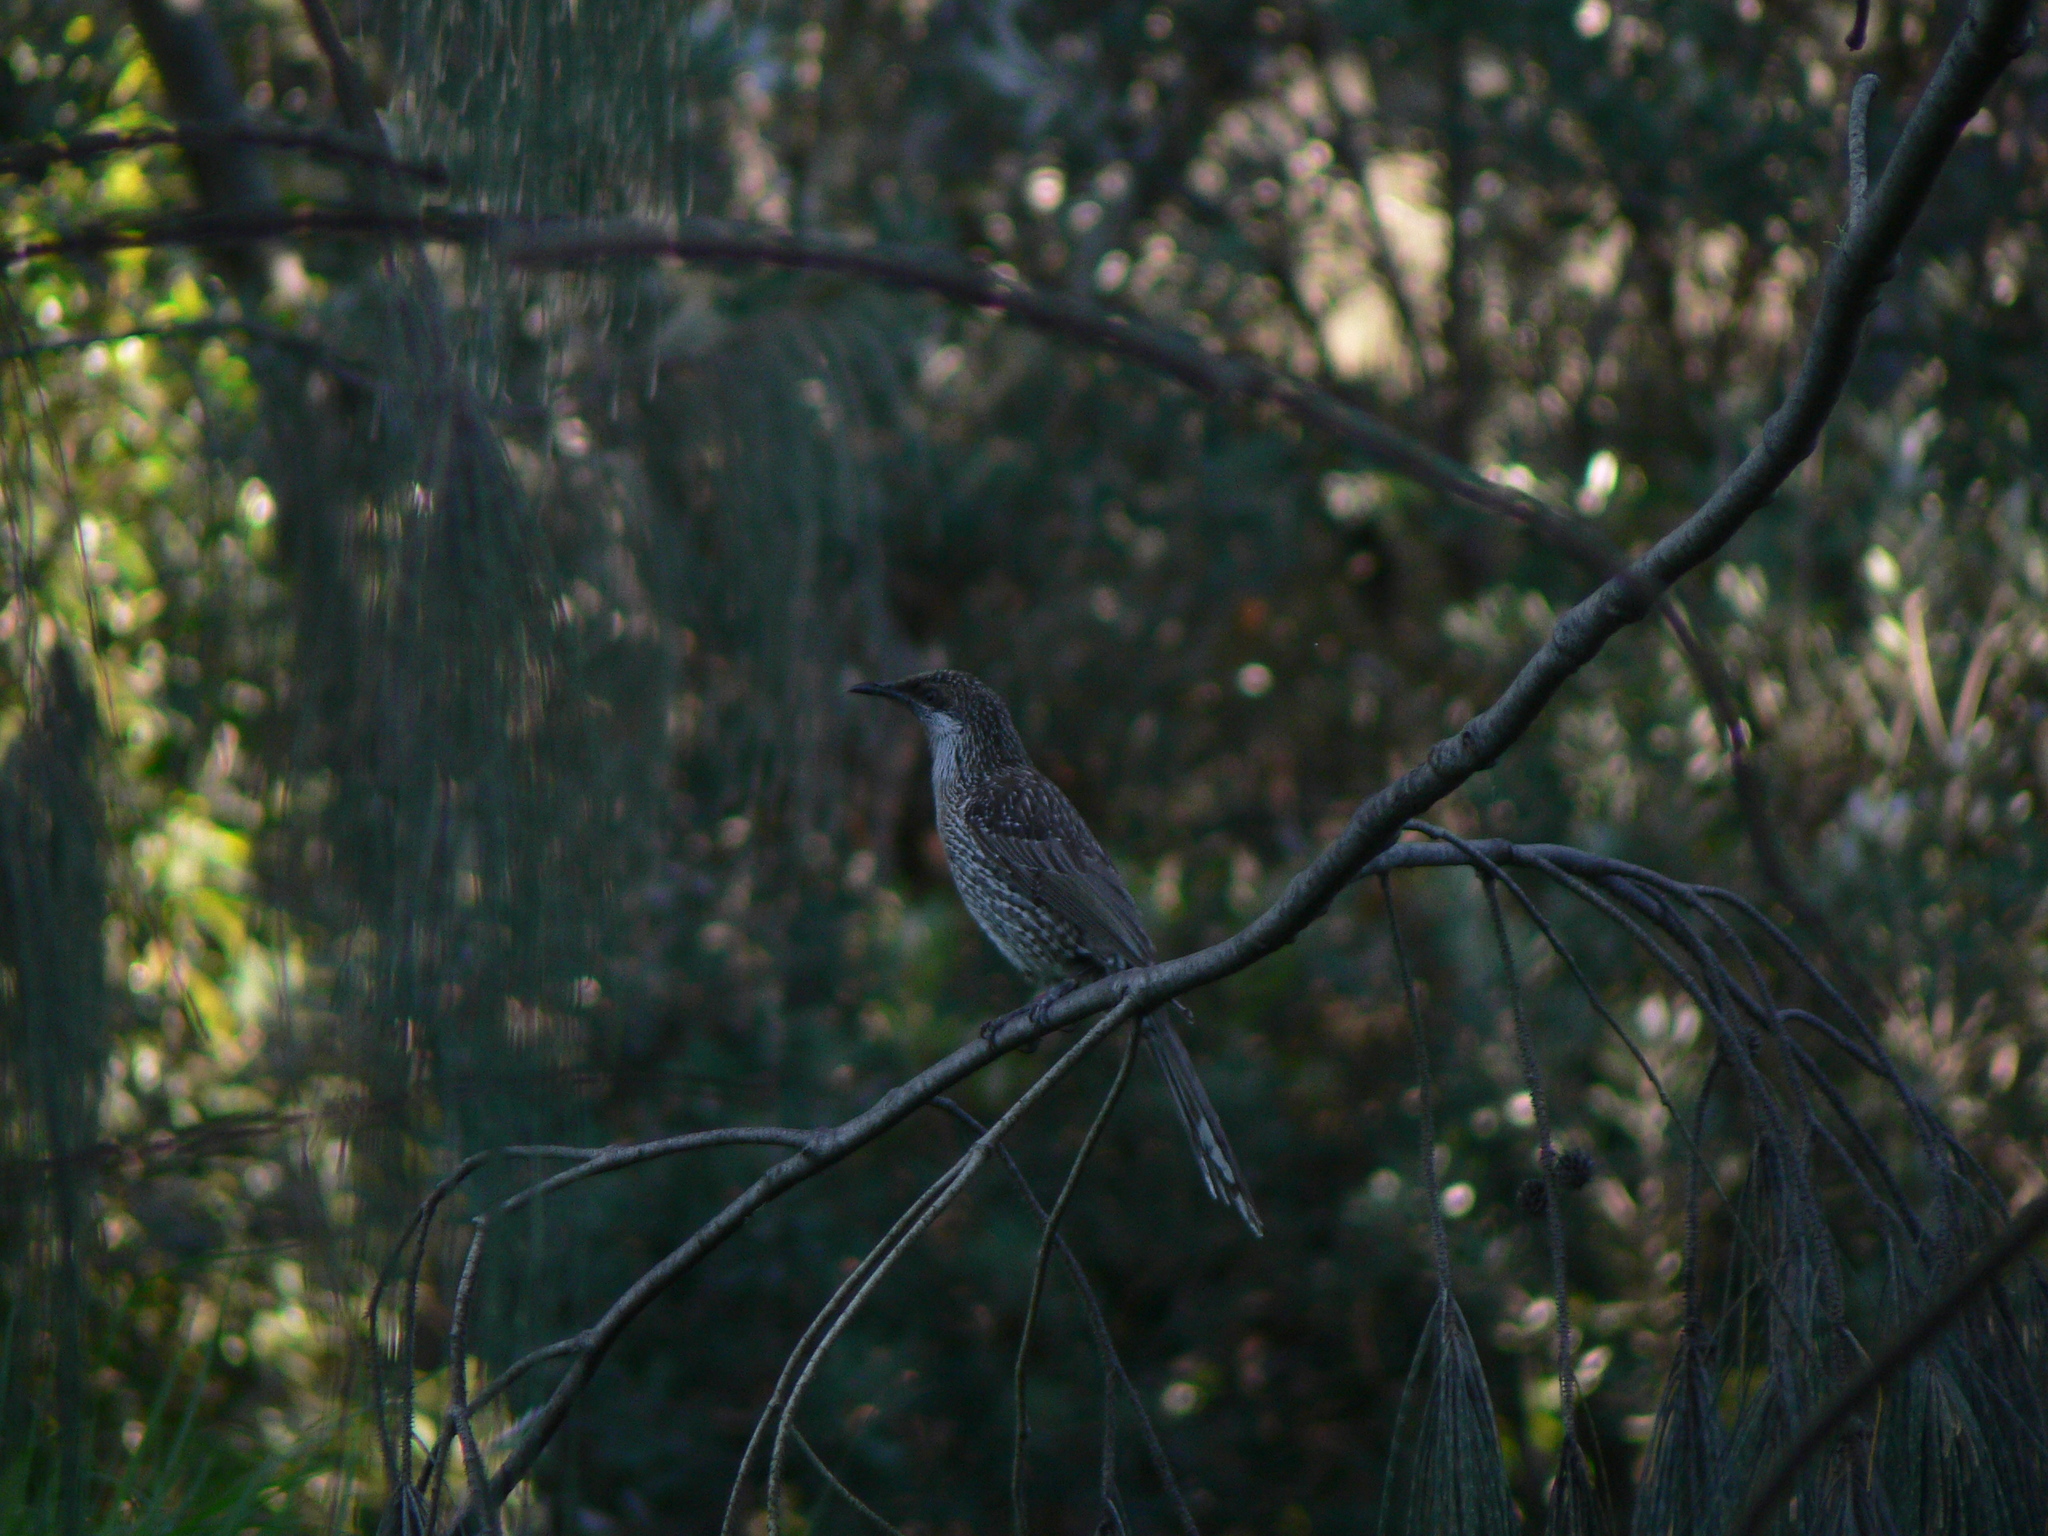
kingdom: Animalia
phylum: Chordata
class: Aves
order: Passeriformes
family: Meliphagidae
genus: Anthochaera
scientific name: Anthochaera chrysoptera
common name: Little wattlebird
